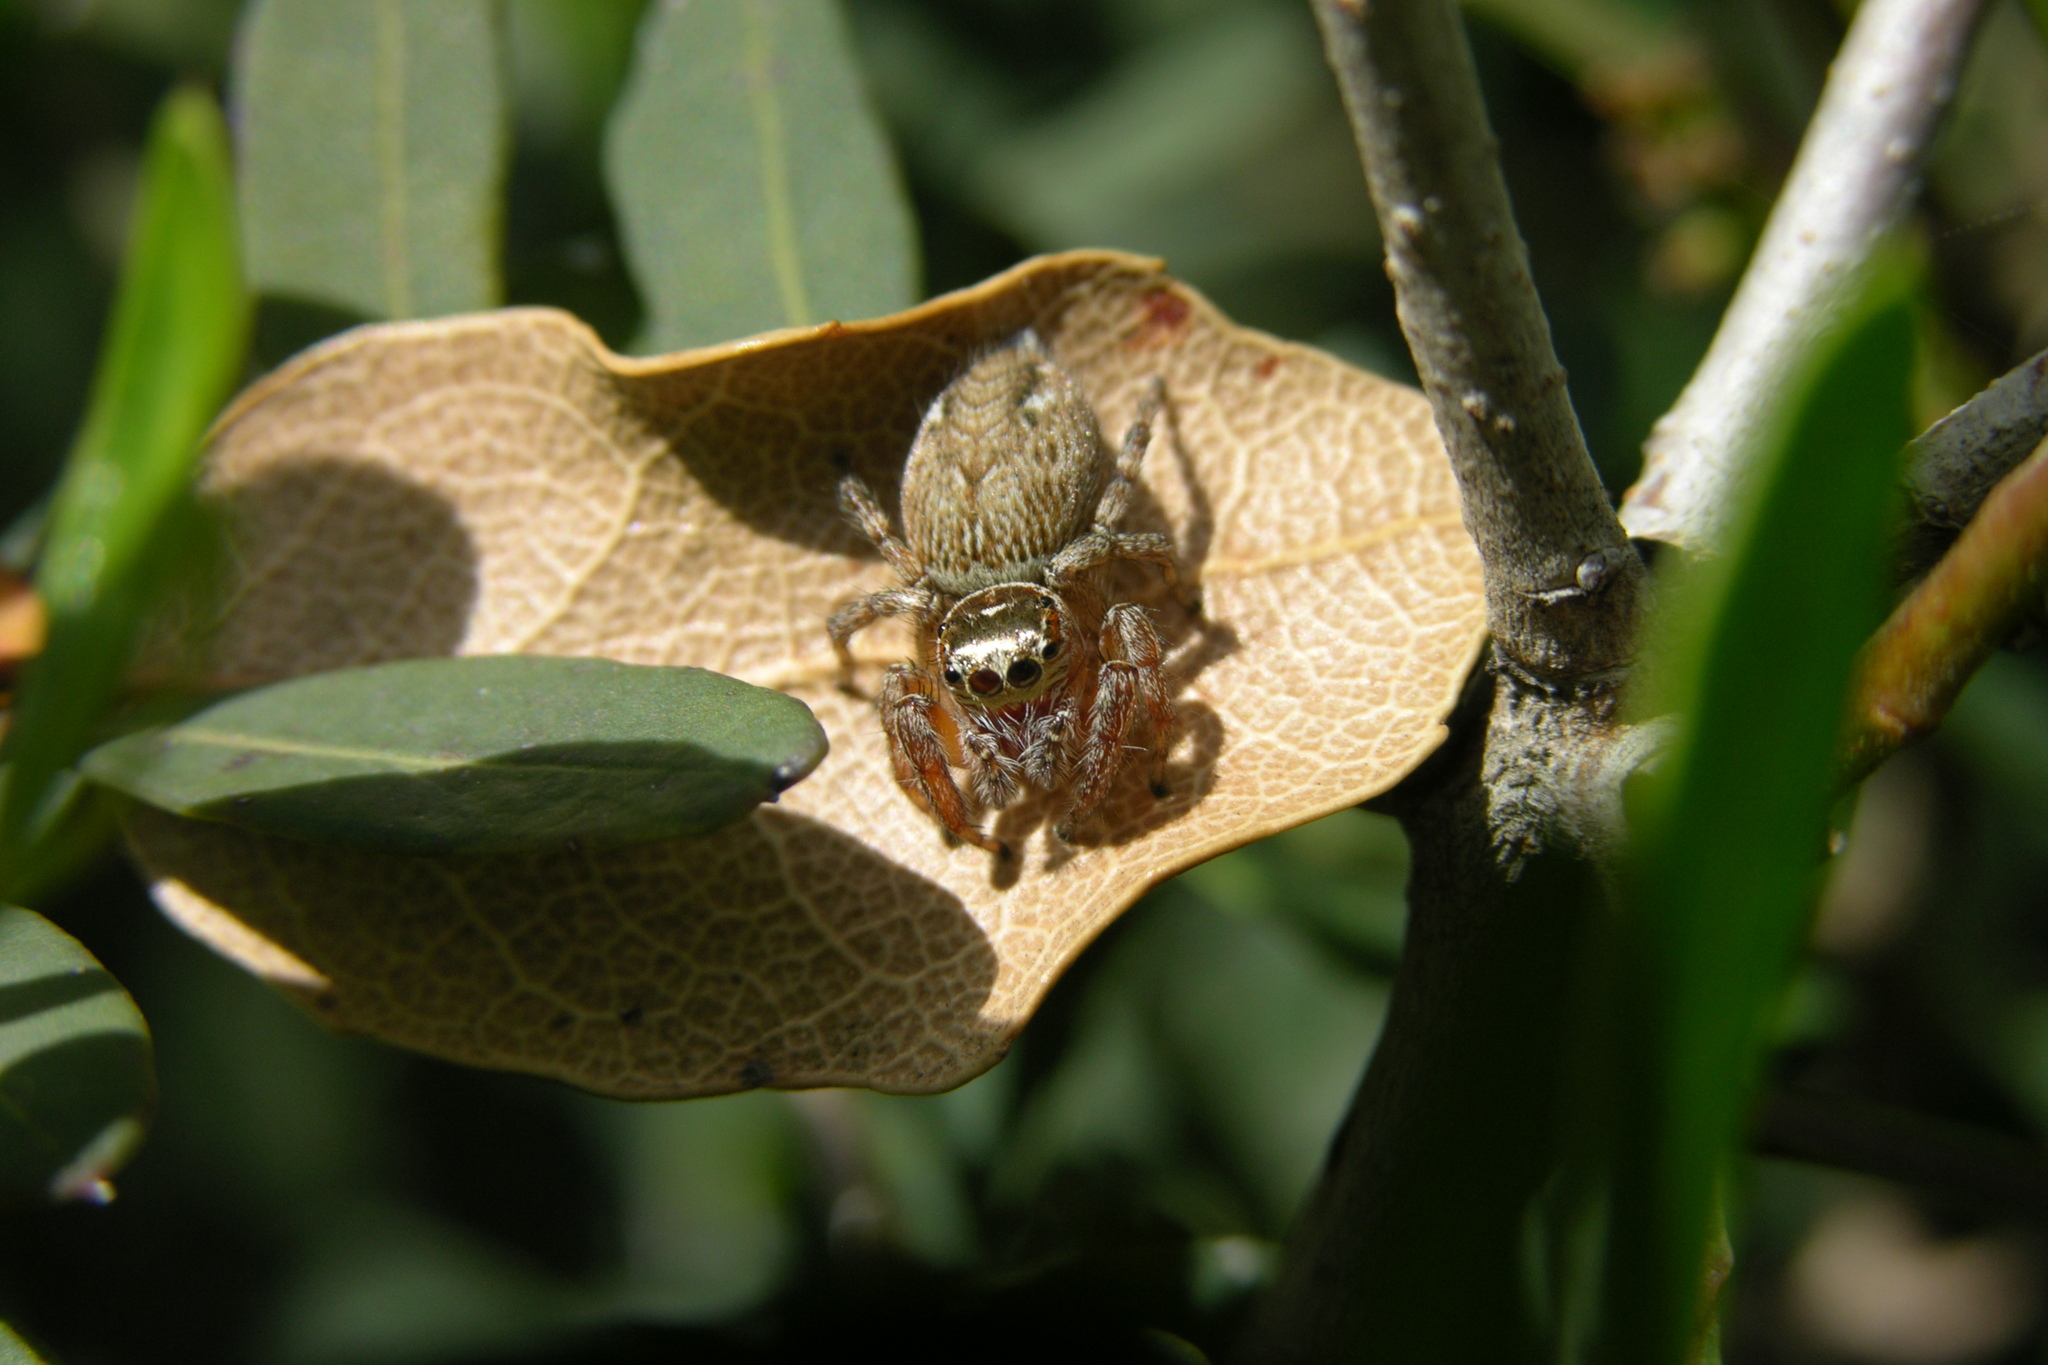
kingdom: Animalia
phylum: Arthropoda
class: Arachnida
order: Araneae
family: Salticidae
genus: Evarcha
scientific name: Evarcha jucunda
